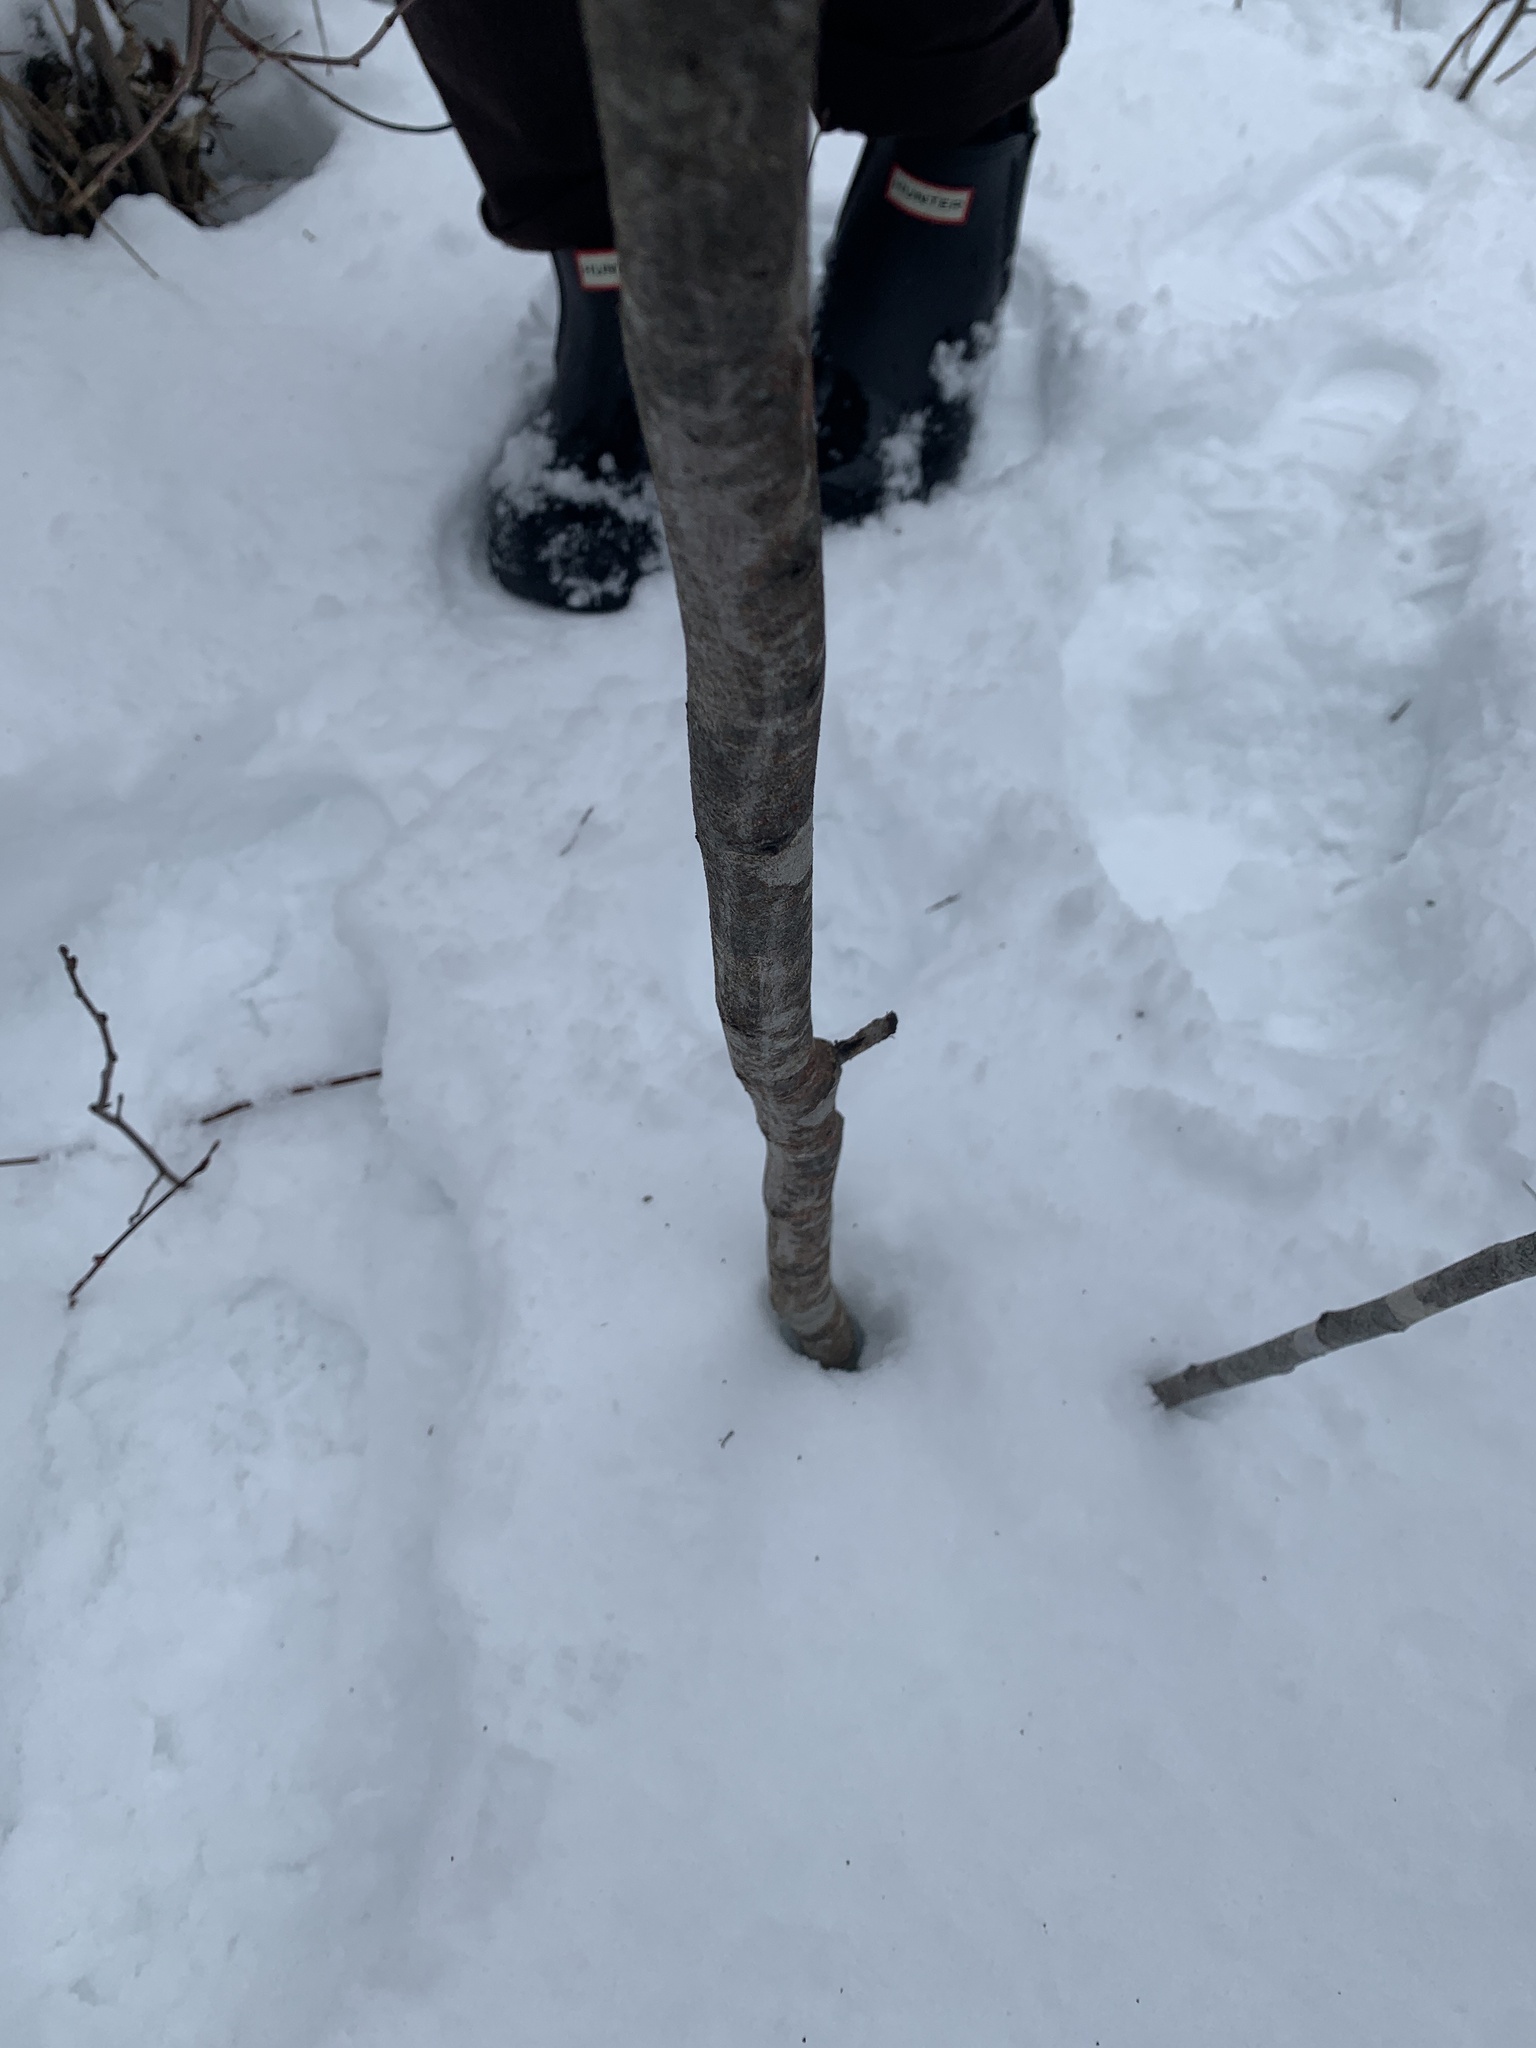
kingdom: Plantae
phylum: Tracheophyta
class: Magnoliopsida
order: Fagales
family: Betulaceae
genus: Carpinus
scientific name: Carpinus caroliniana
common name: American hornbeam
